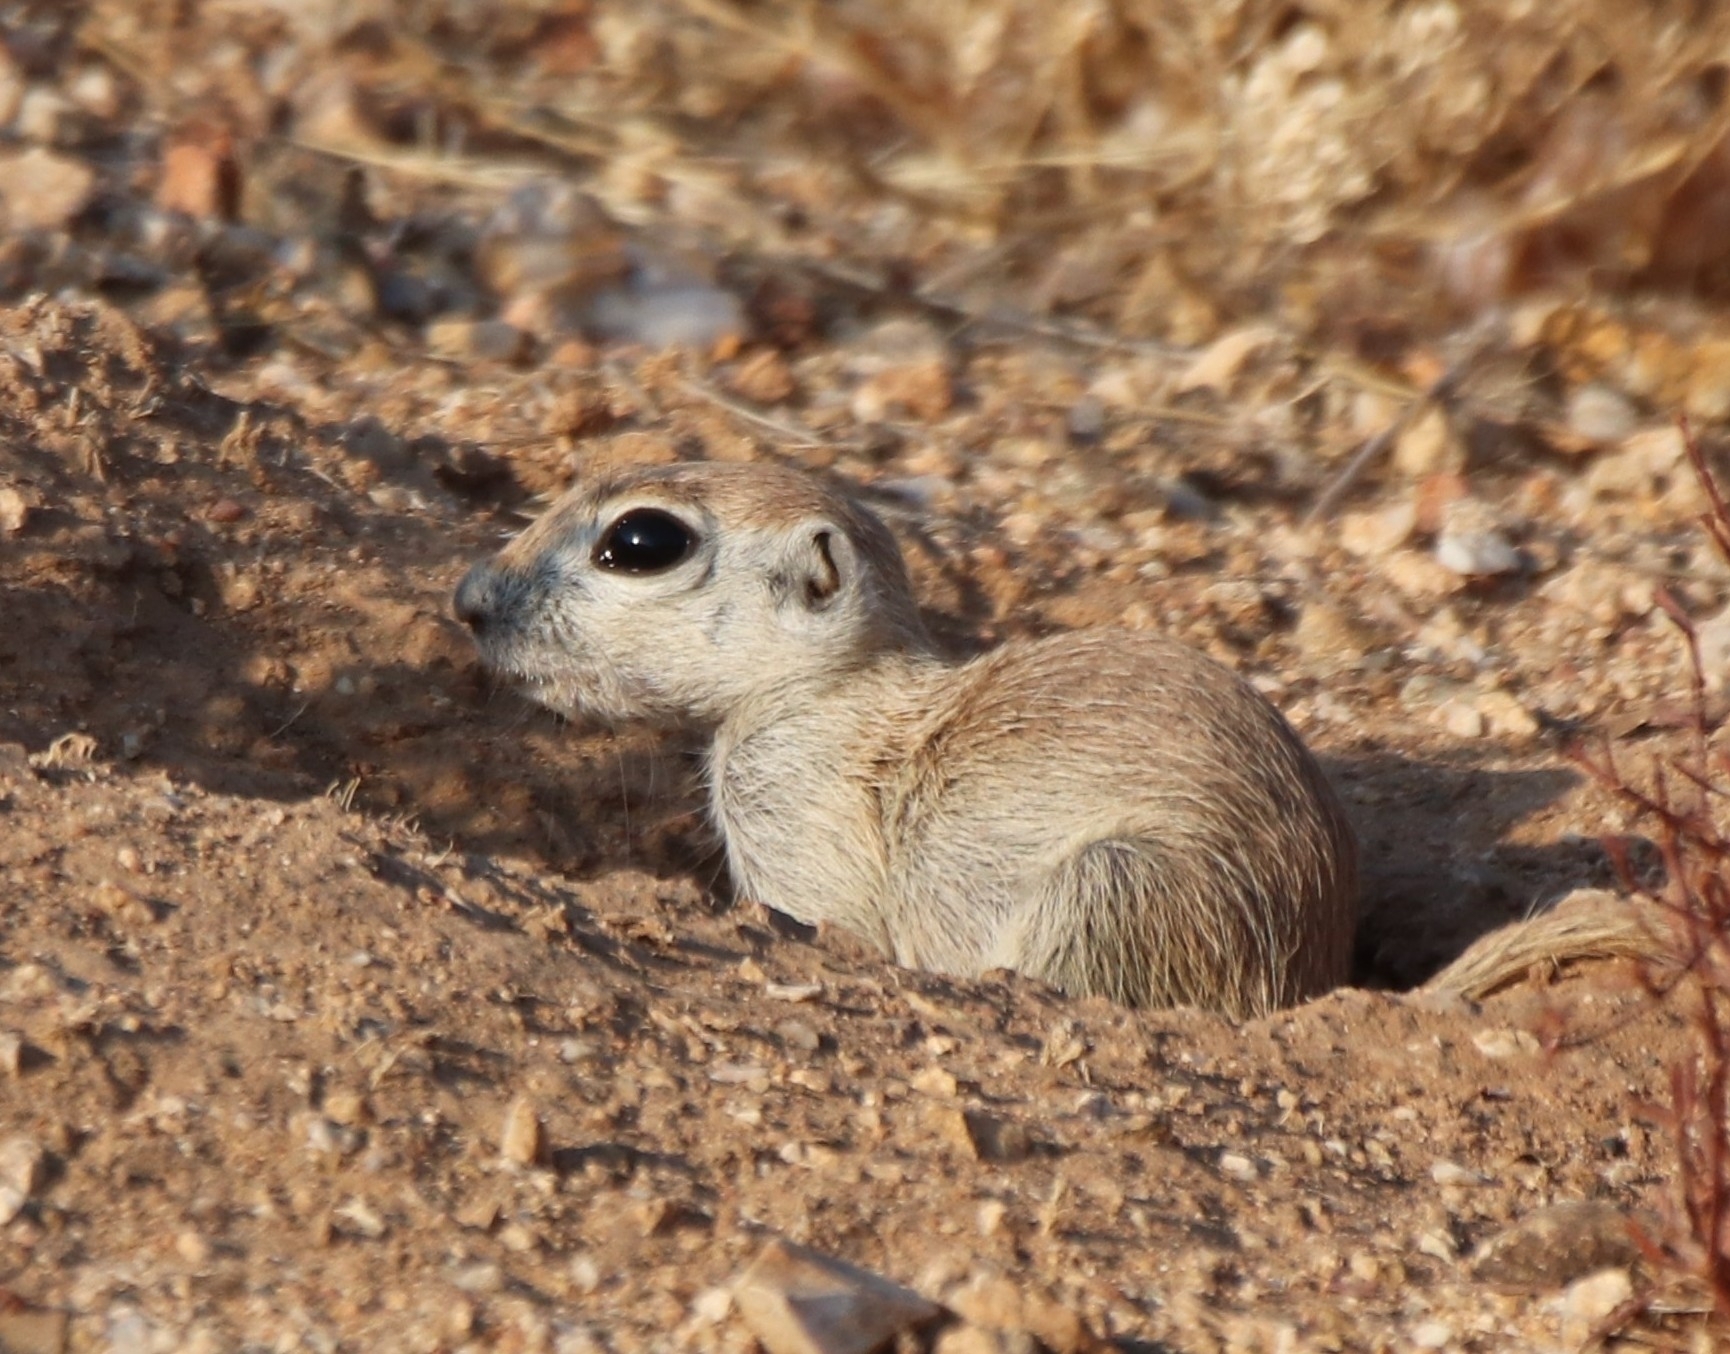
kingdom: Animalia
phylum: Chordata
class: Mammalia
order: Rodentia
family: Sciuridae
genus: Xerospermophilus
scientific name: Xerospermophilus tereticaudus
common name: Round-tailed ground squirrel
